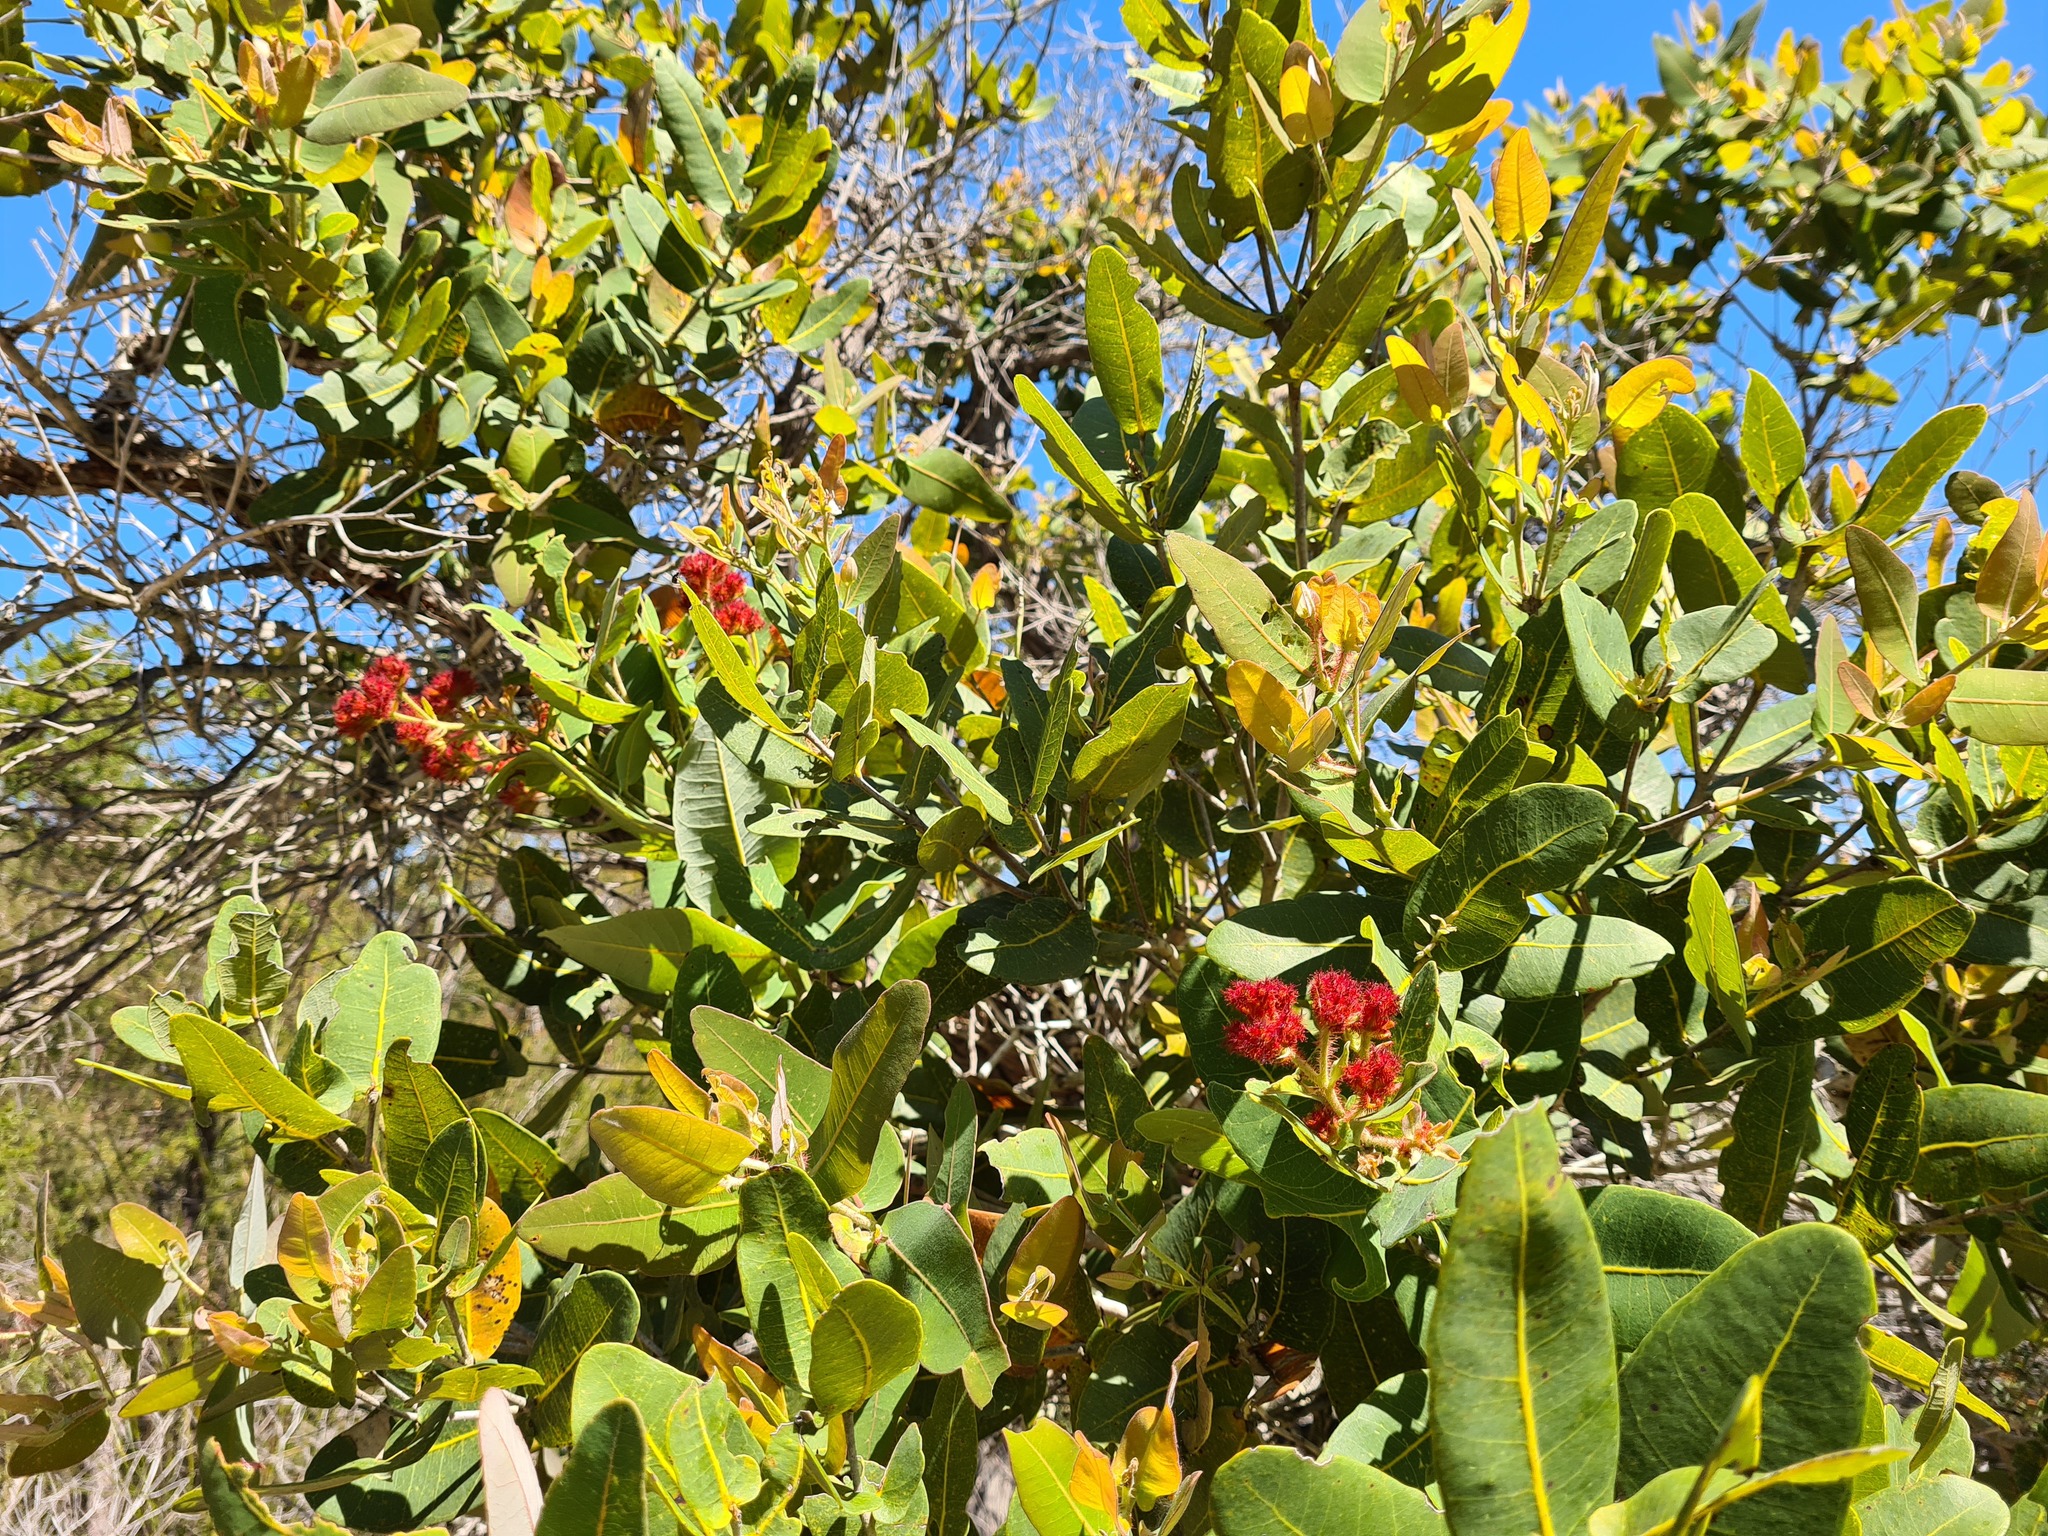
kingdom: Plantae
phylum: Tracheophyta
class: Magnoliopsida
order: Myrtales
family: Myrtaceae
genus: Angophora
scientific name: Angophora hispida
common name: Dwarf-apple
